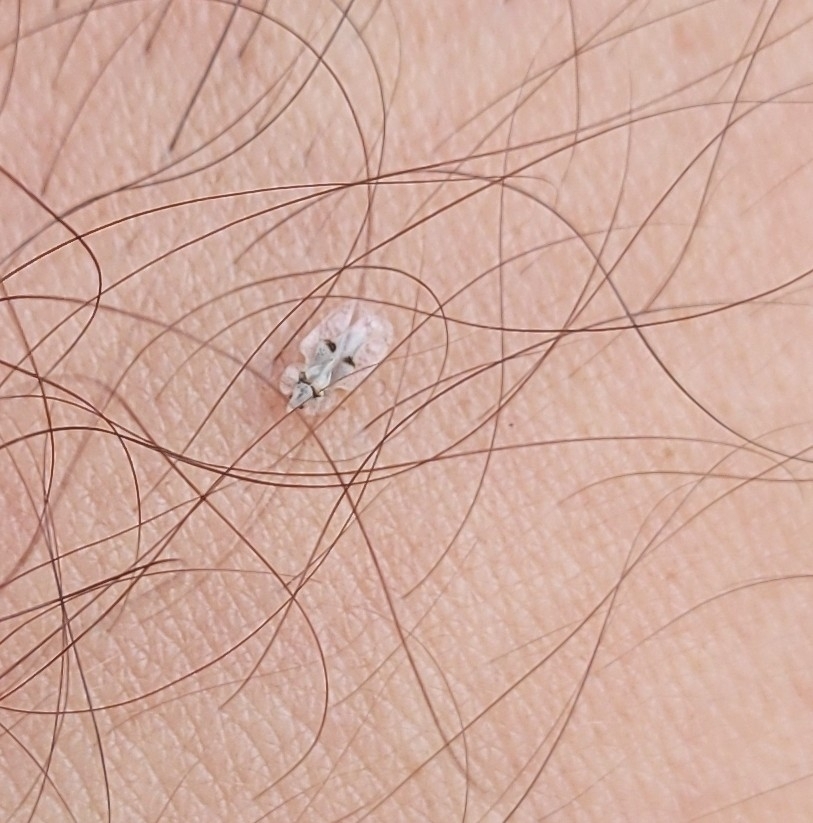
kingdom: Animalia
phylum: Arthropoda
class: Insecta
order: Hemiptera
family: Tingidae
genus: Corythucha
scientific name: Corythucha ciliata
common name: Sycamore lace bug
